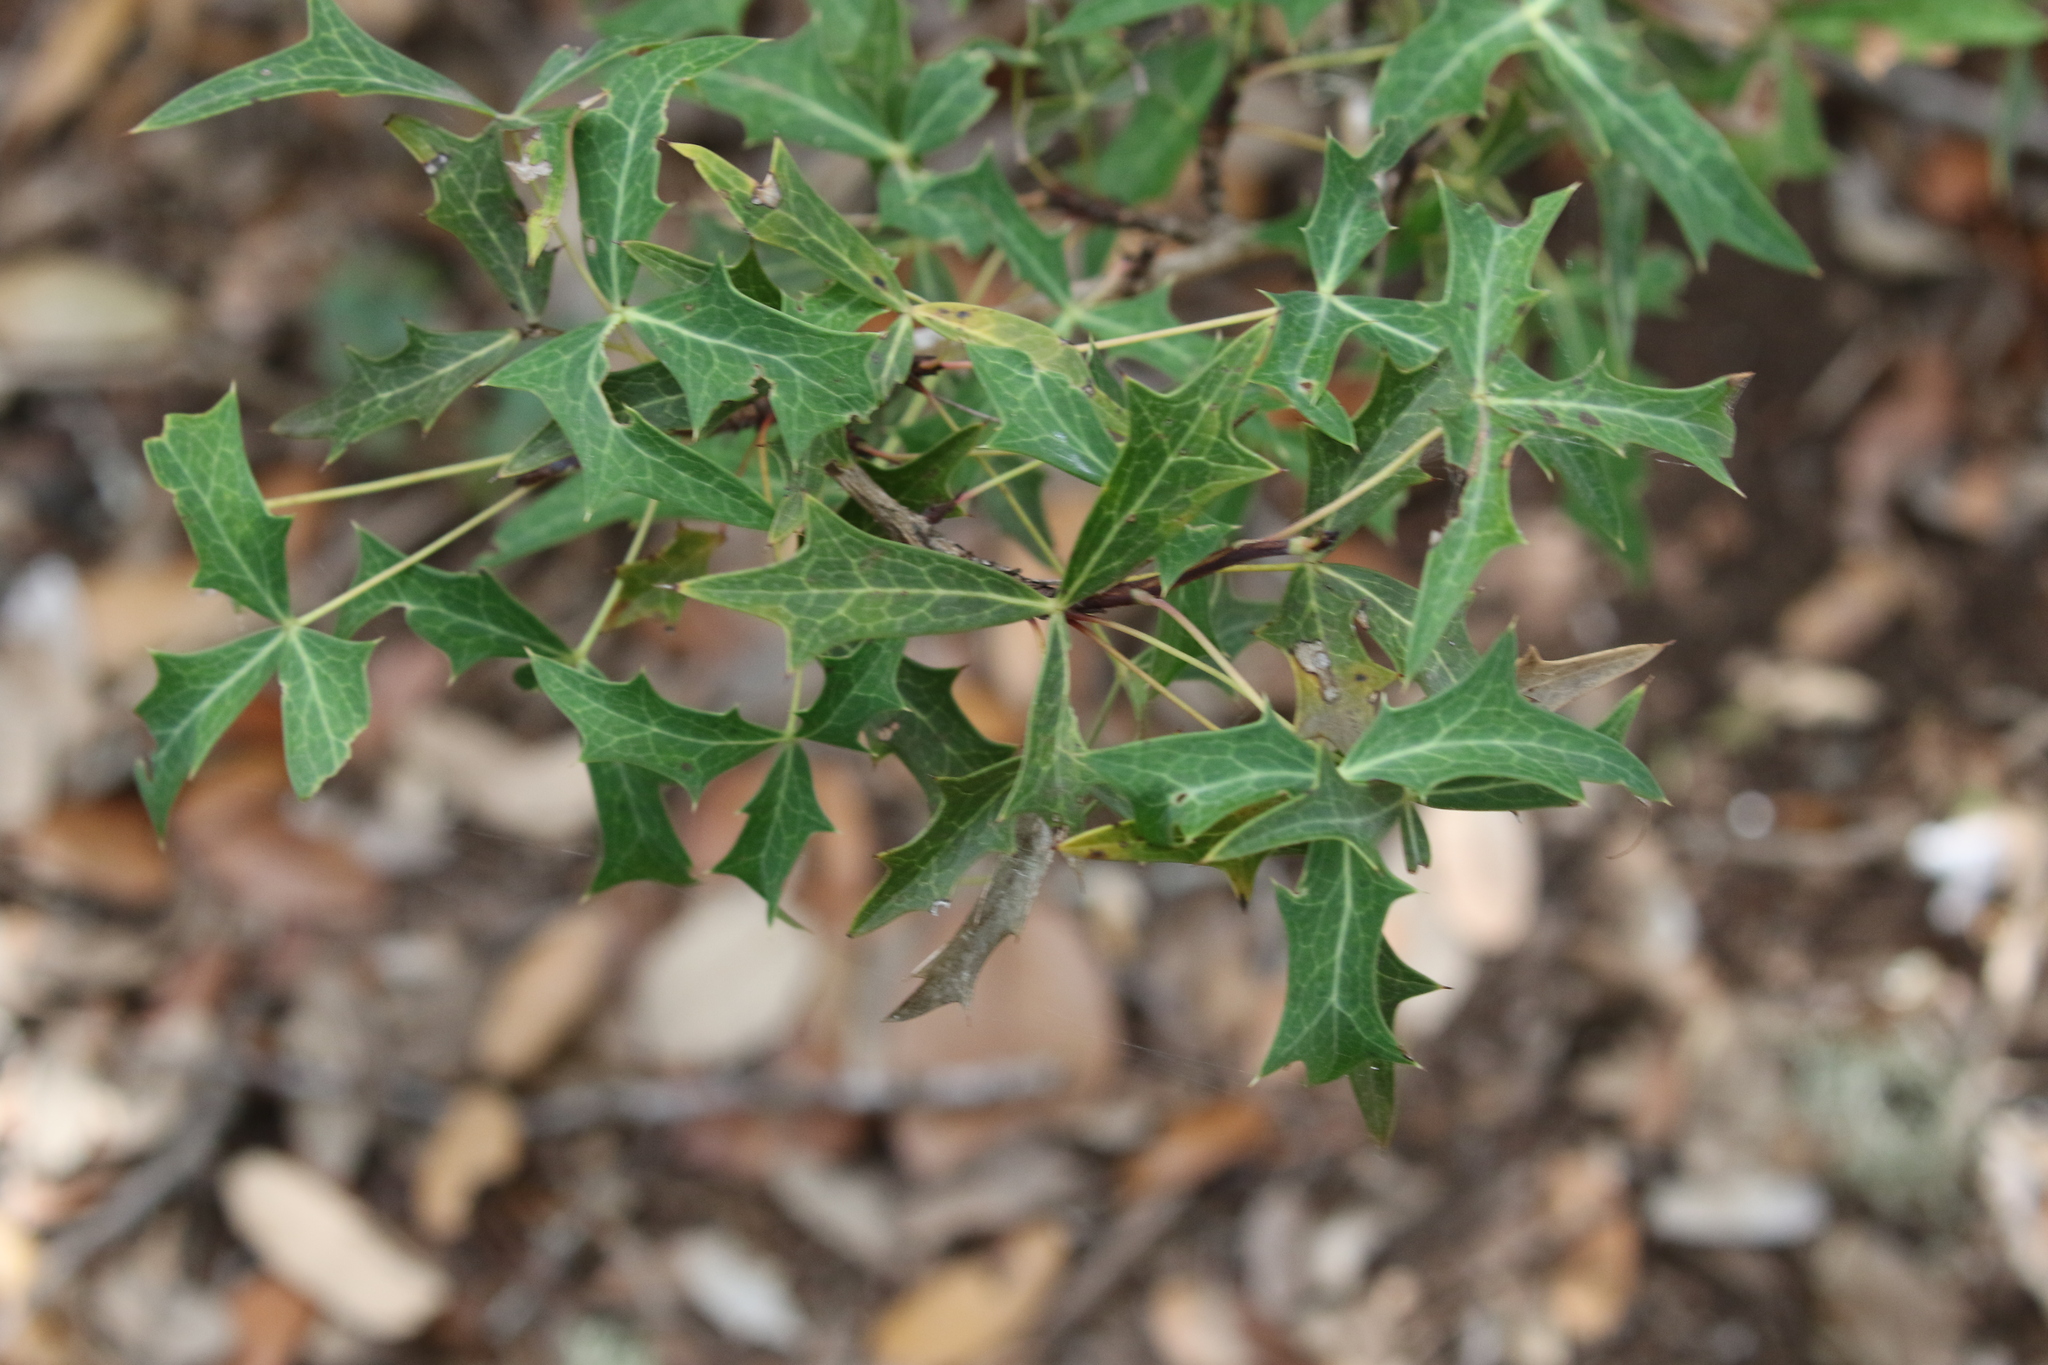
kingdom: Plantae
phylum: Tracheophyta
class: Magnoliopsida
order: Ranunculales
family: Berberidaceae
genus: Alloberberis
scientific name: Alloberberis trifoliolata
